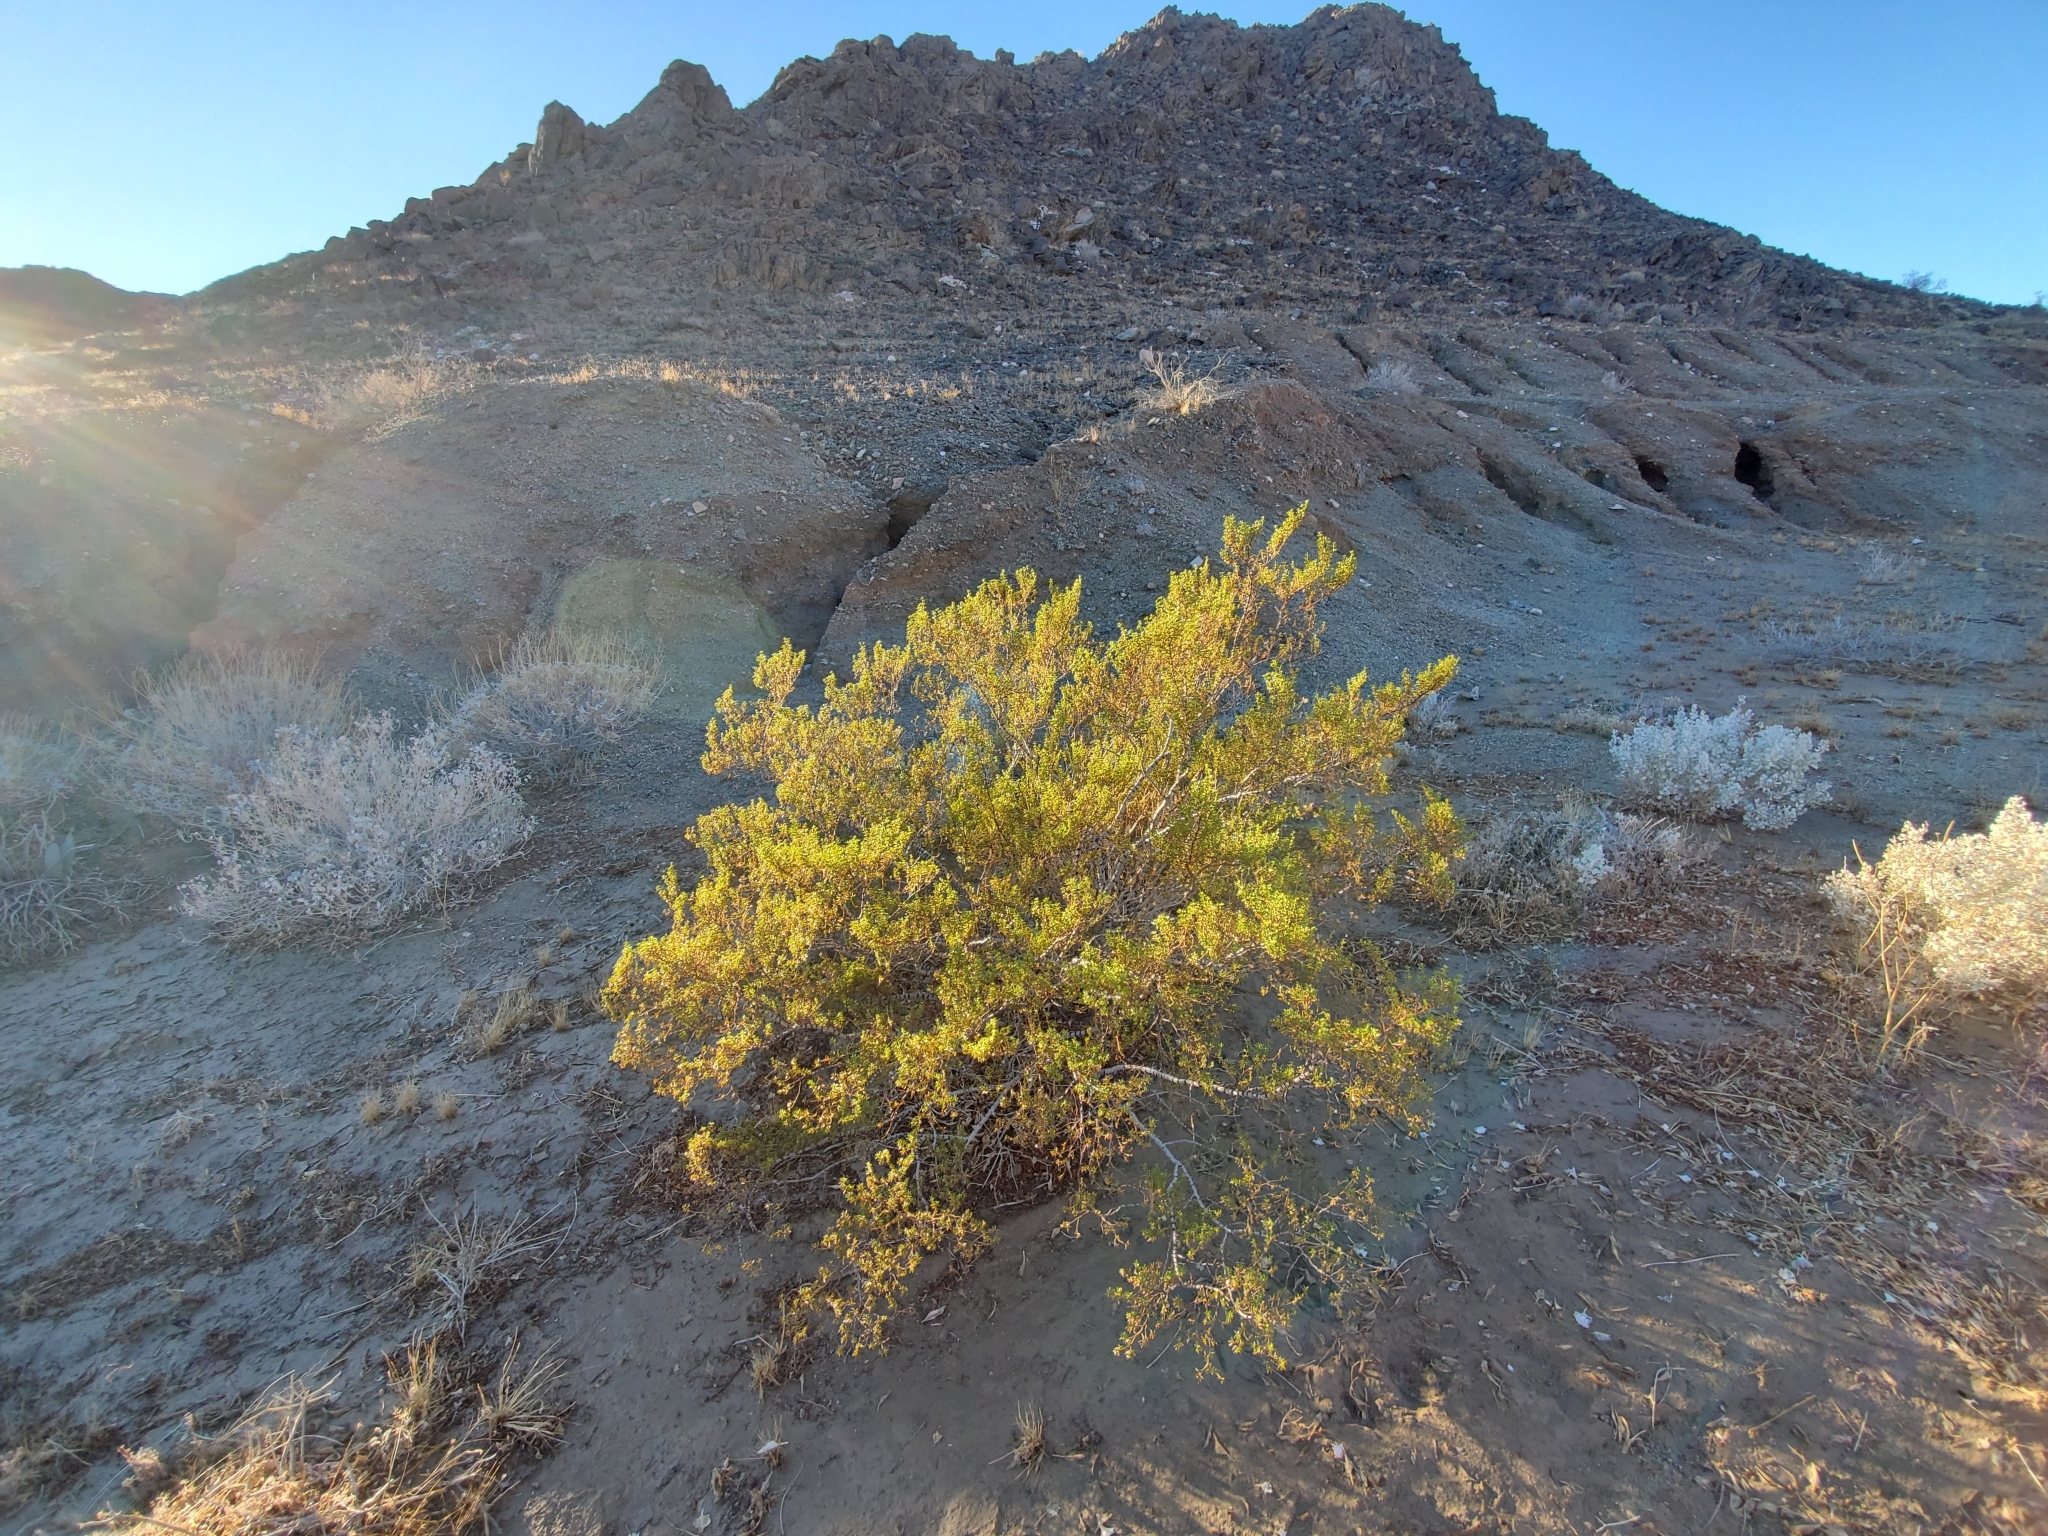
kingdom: Plantae
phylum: Tracheophyta
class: Magnoliopsida
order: Zygophyllales
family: Zygophyllaceae
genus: Larrea
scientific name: Larrea tridentata
